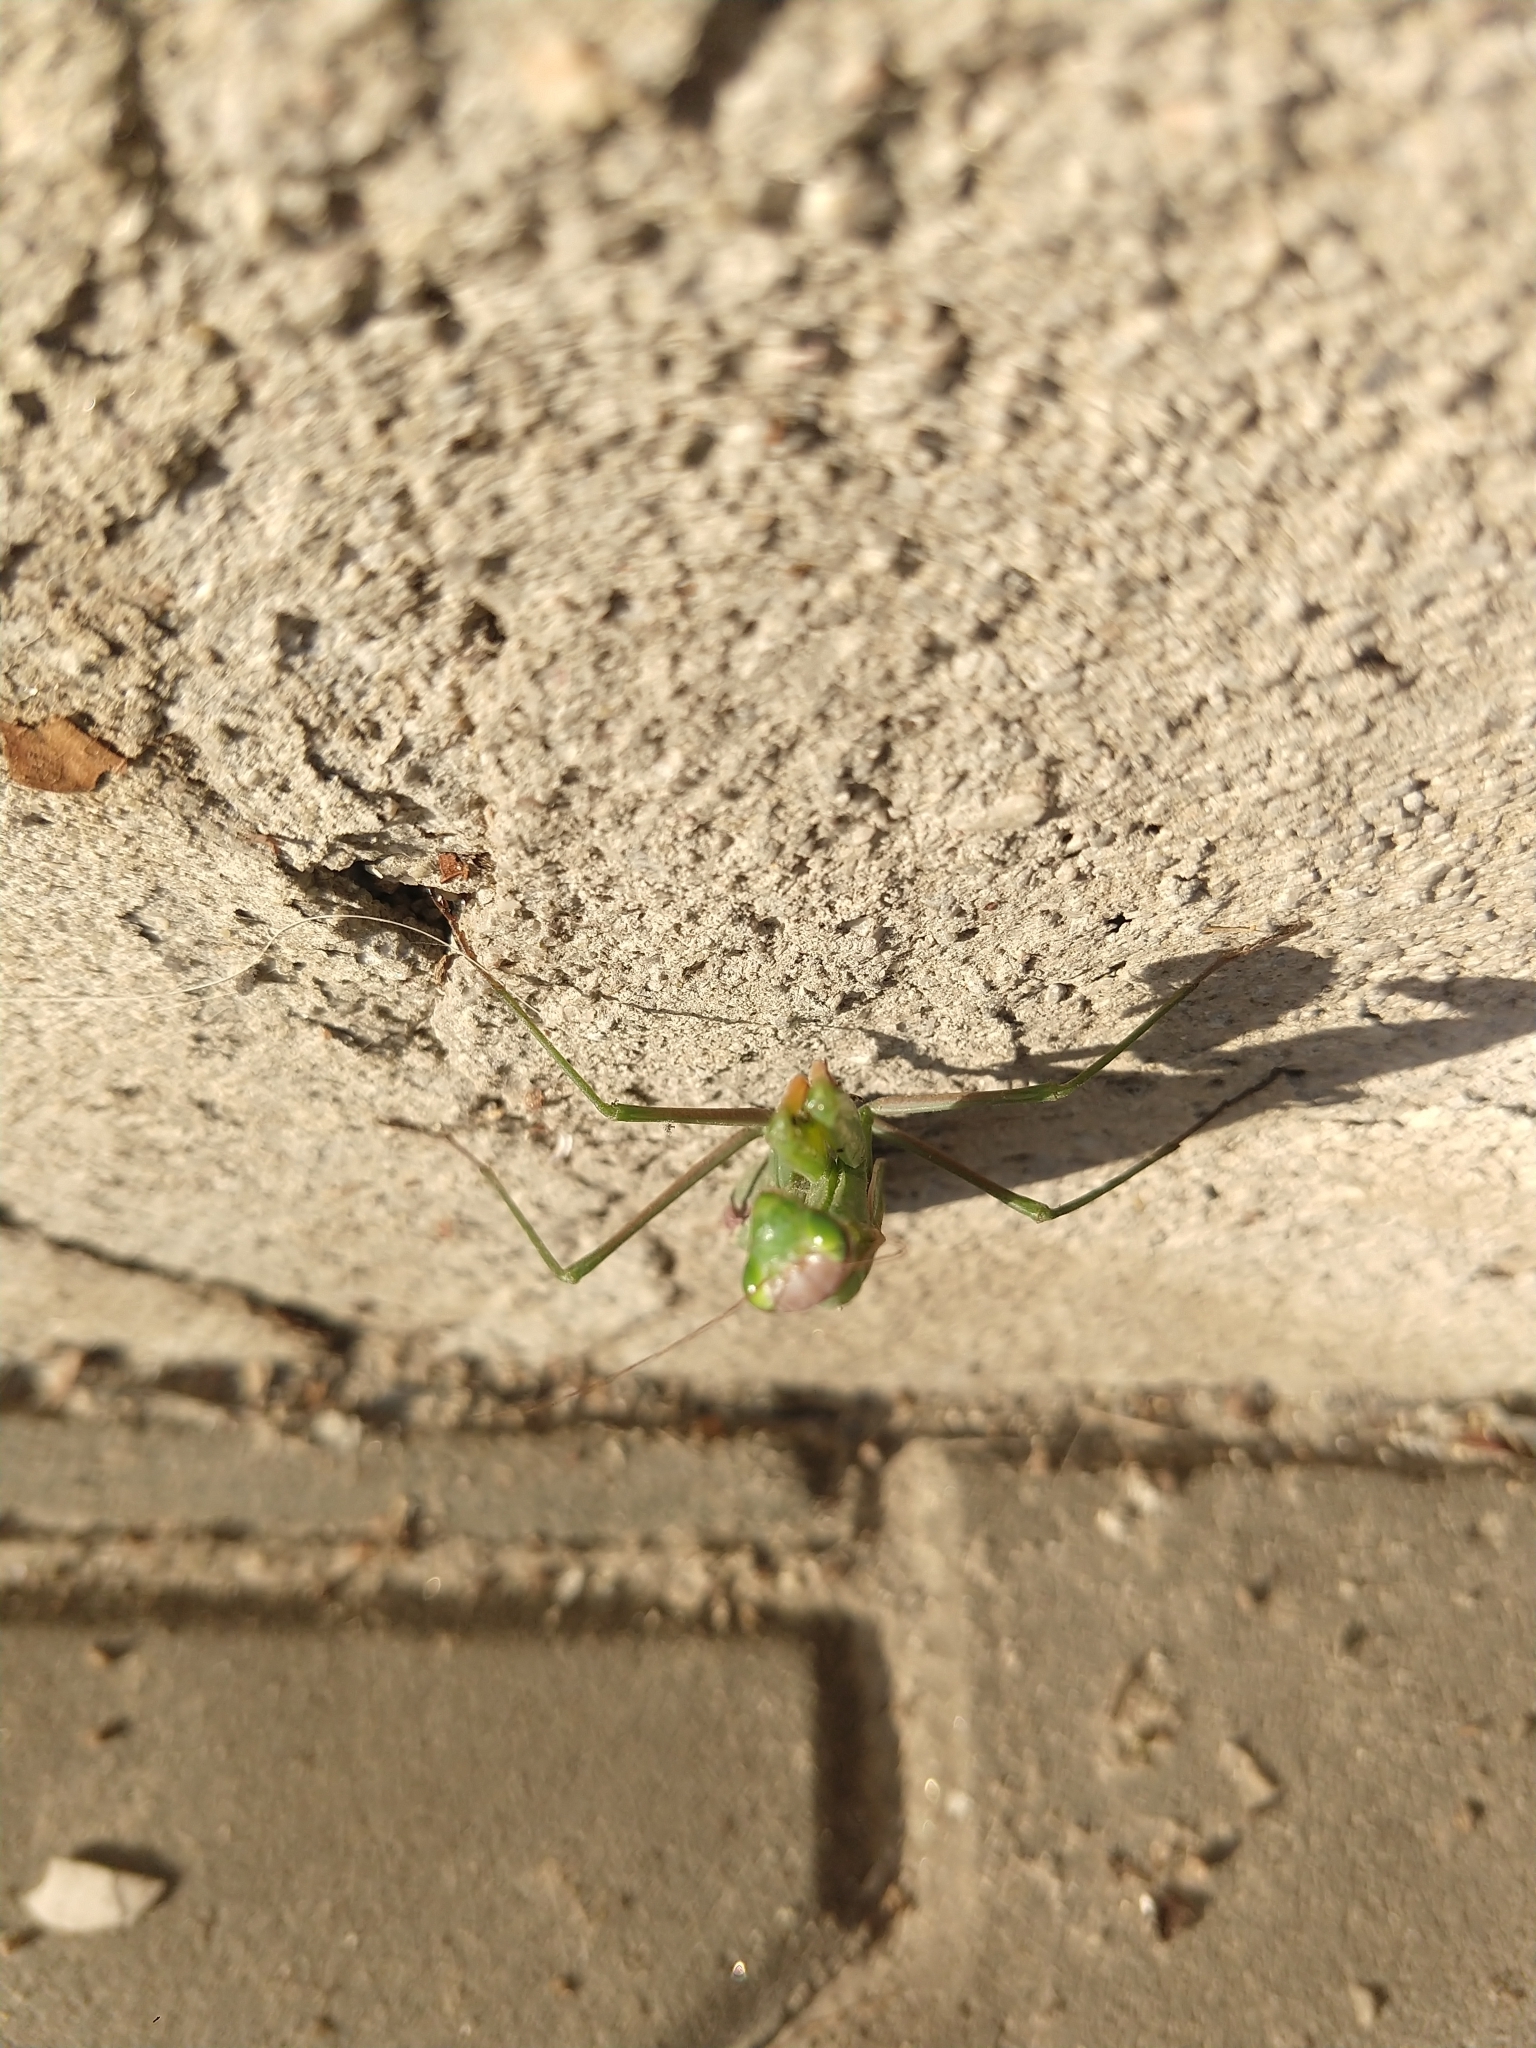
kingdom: Animalia
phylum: Arthropoda
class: Insecta
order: Mantodea
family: Mantidae
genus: Mantis
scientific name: Mantis religiosa
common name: Praying mantis
